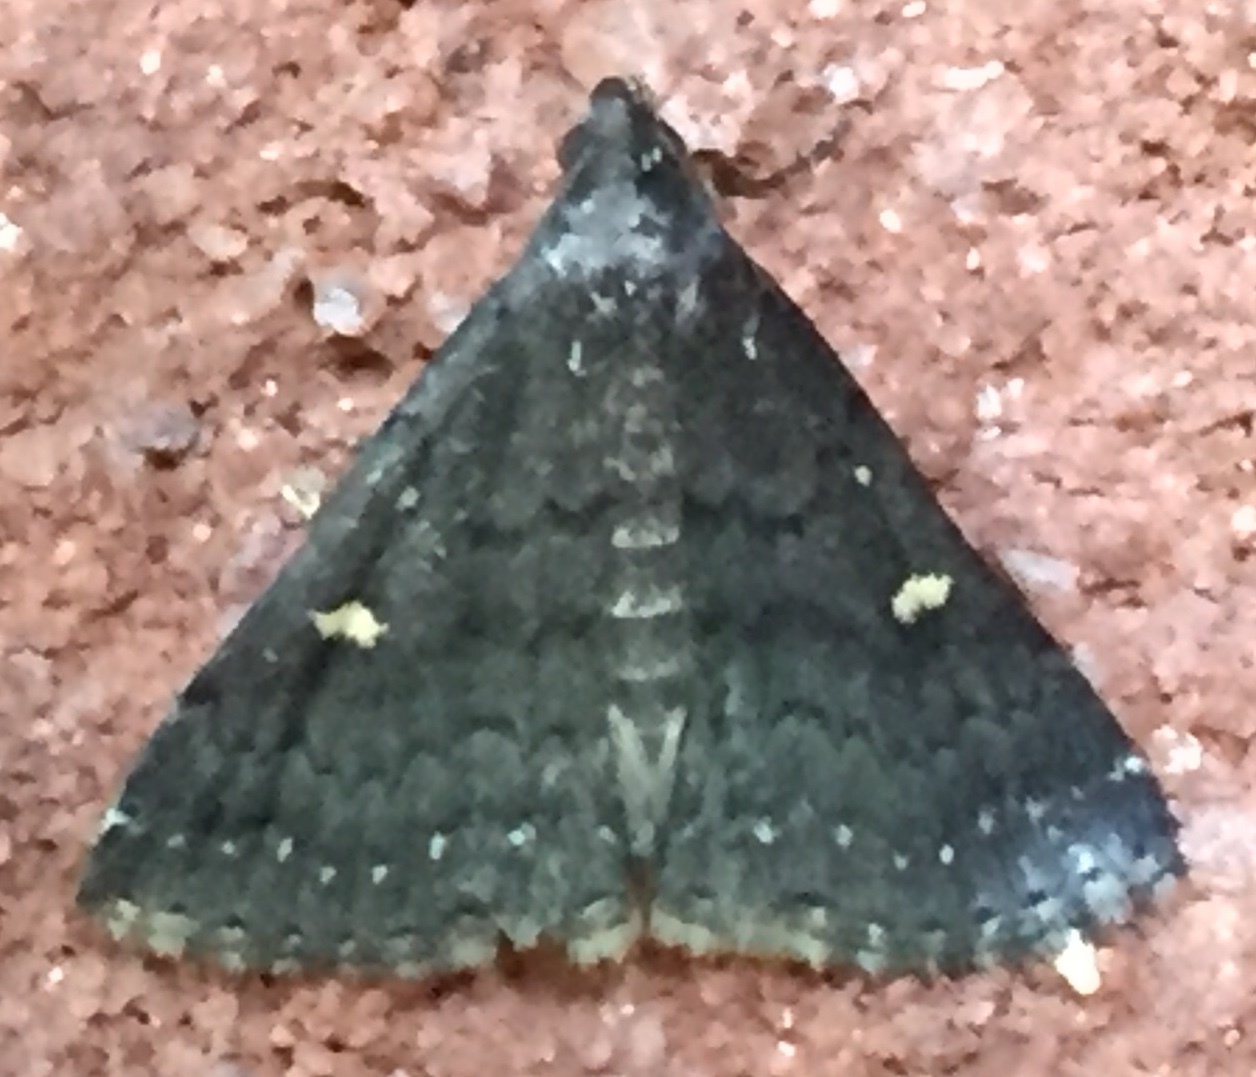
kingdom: Animalia
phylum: Arthropoda
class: Insecta
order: Lepidoptera
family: Erebidae
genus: Tetanolita
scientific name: Tetanolita mynesalis
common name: Smoky tetanolita moth
